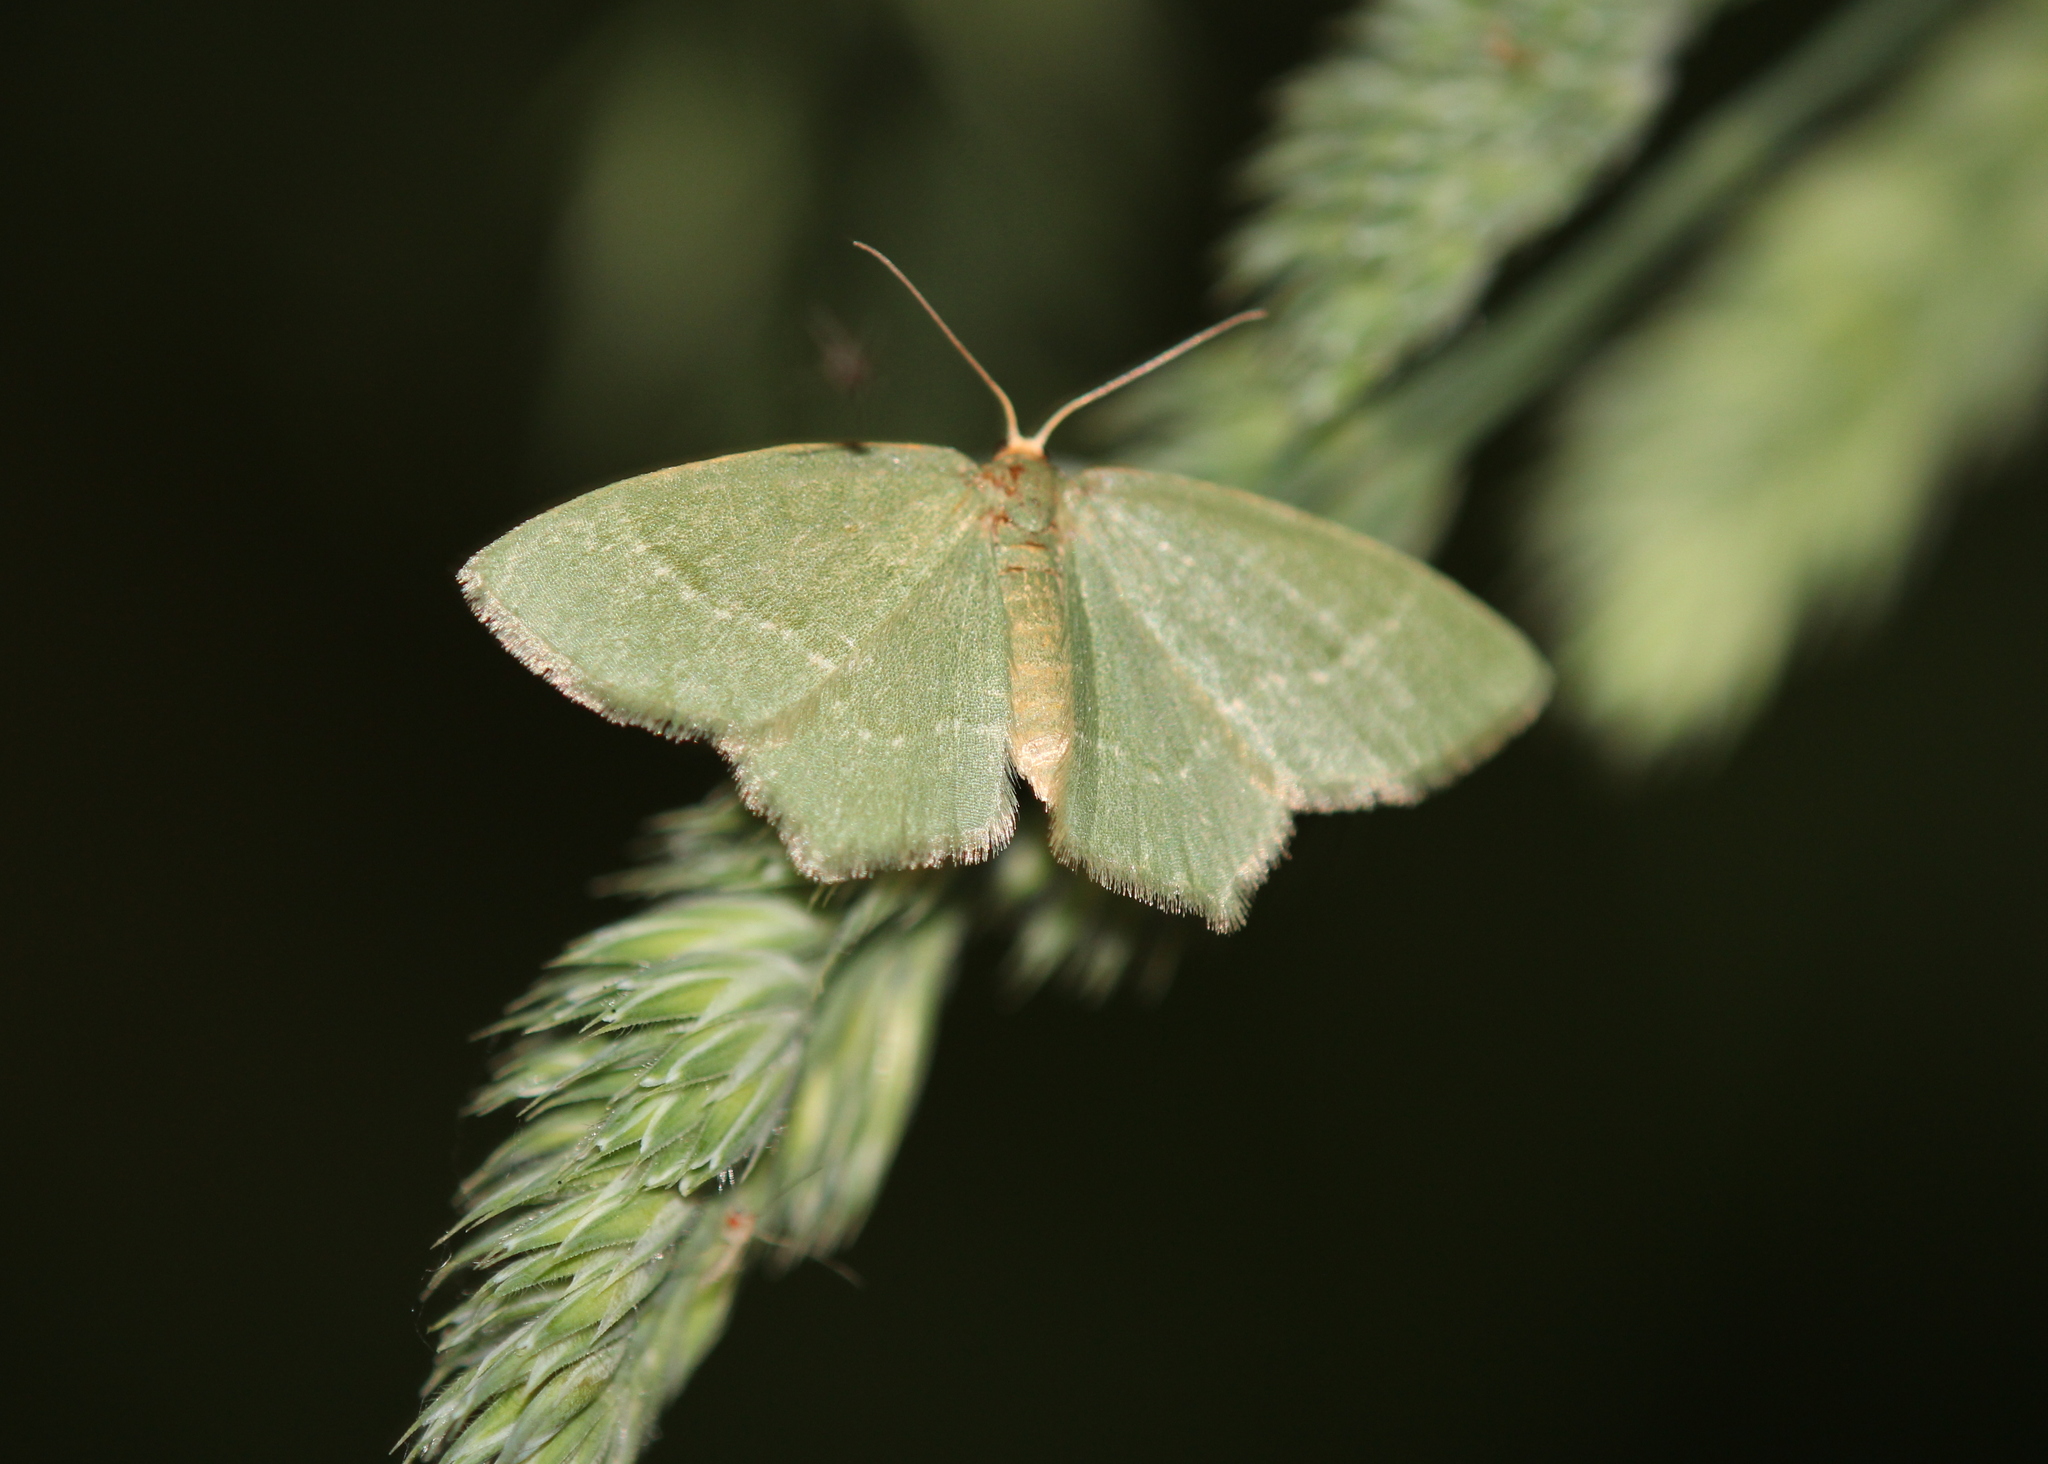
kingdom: Animalia
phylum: Arthropoda
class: Insecta
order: Lepidoptera
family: Geometridae
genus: Thalera
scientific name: Thalera pistasciaria
